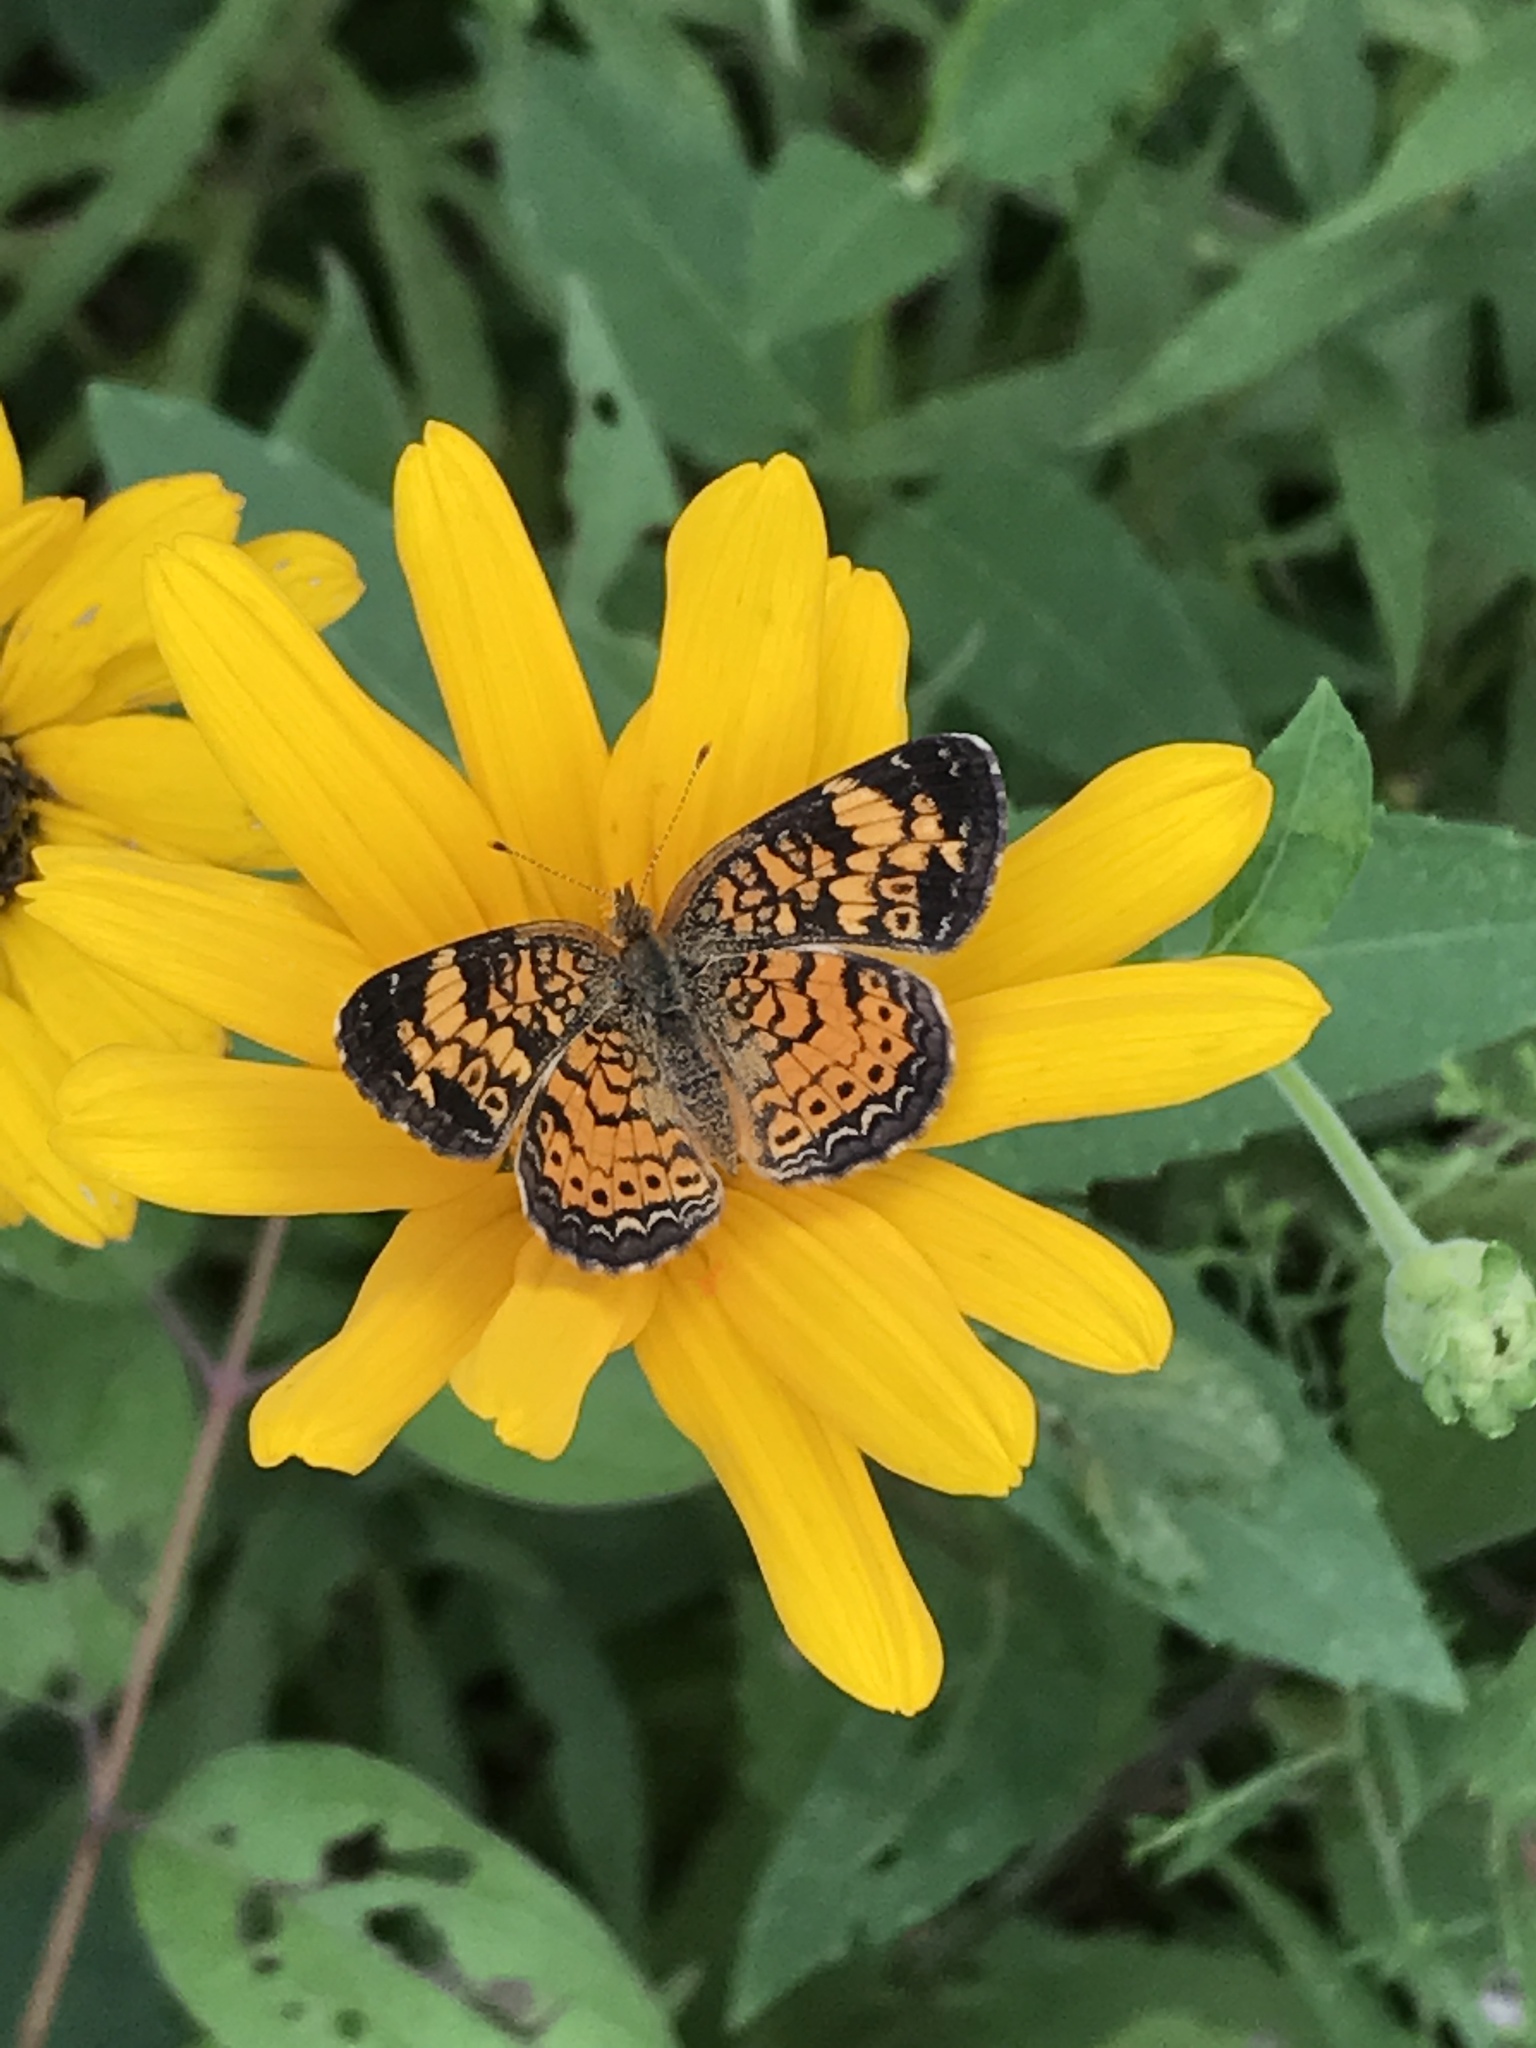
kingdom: Animalia
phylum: Arthropoda
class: Insecta
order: Lepidoptera
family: Nymphalidae
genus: Phyciodes
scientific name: Phyciodes tharos
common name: Pearl crescent
